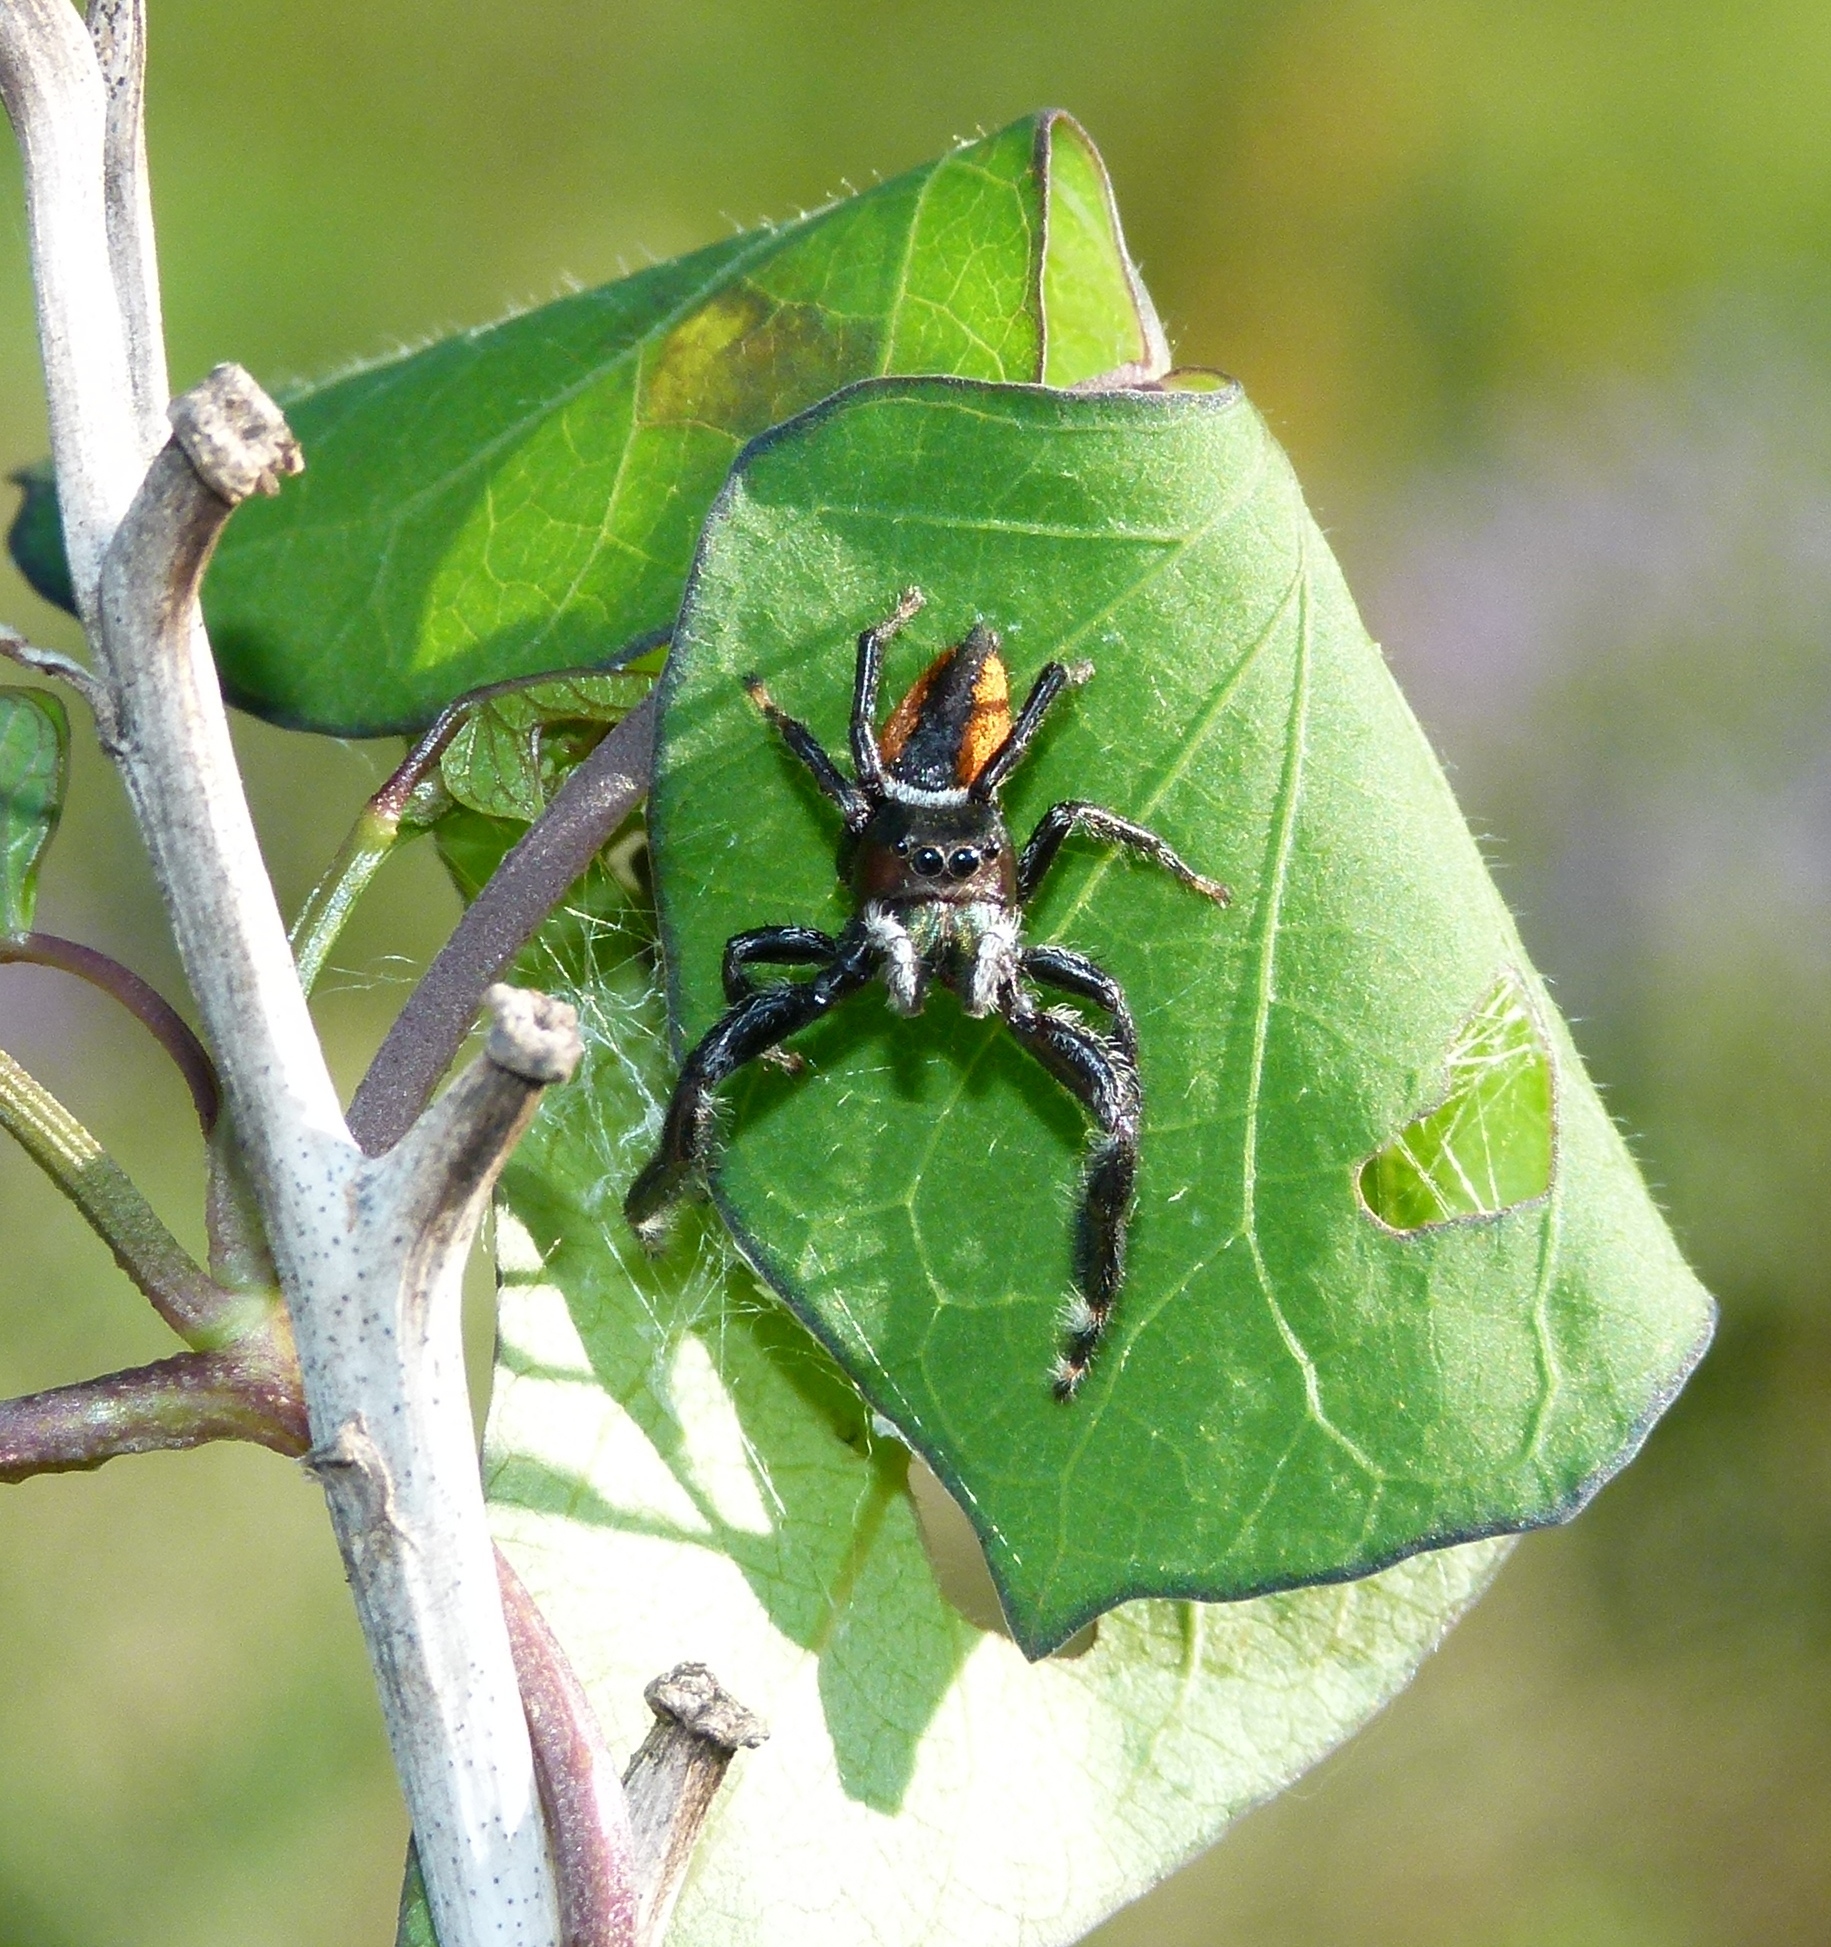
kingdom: Animalia
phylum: Arthropoda
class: Arachnida
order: Araneae
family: Salticidae
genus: Phidippus
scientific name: Phidippus clarus
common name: Brilliant jumping spider
